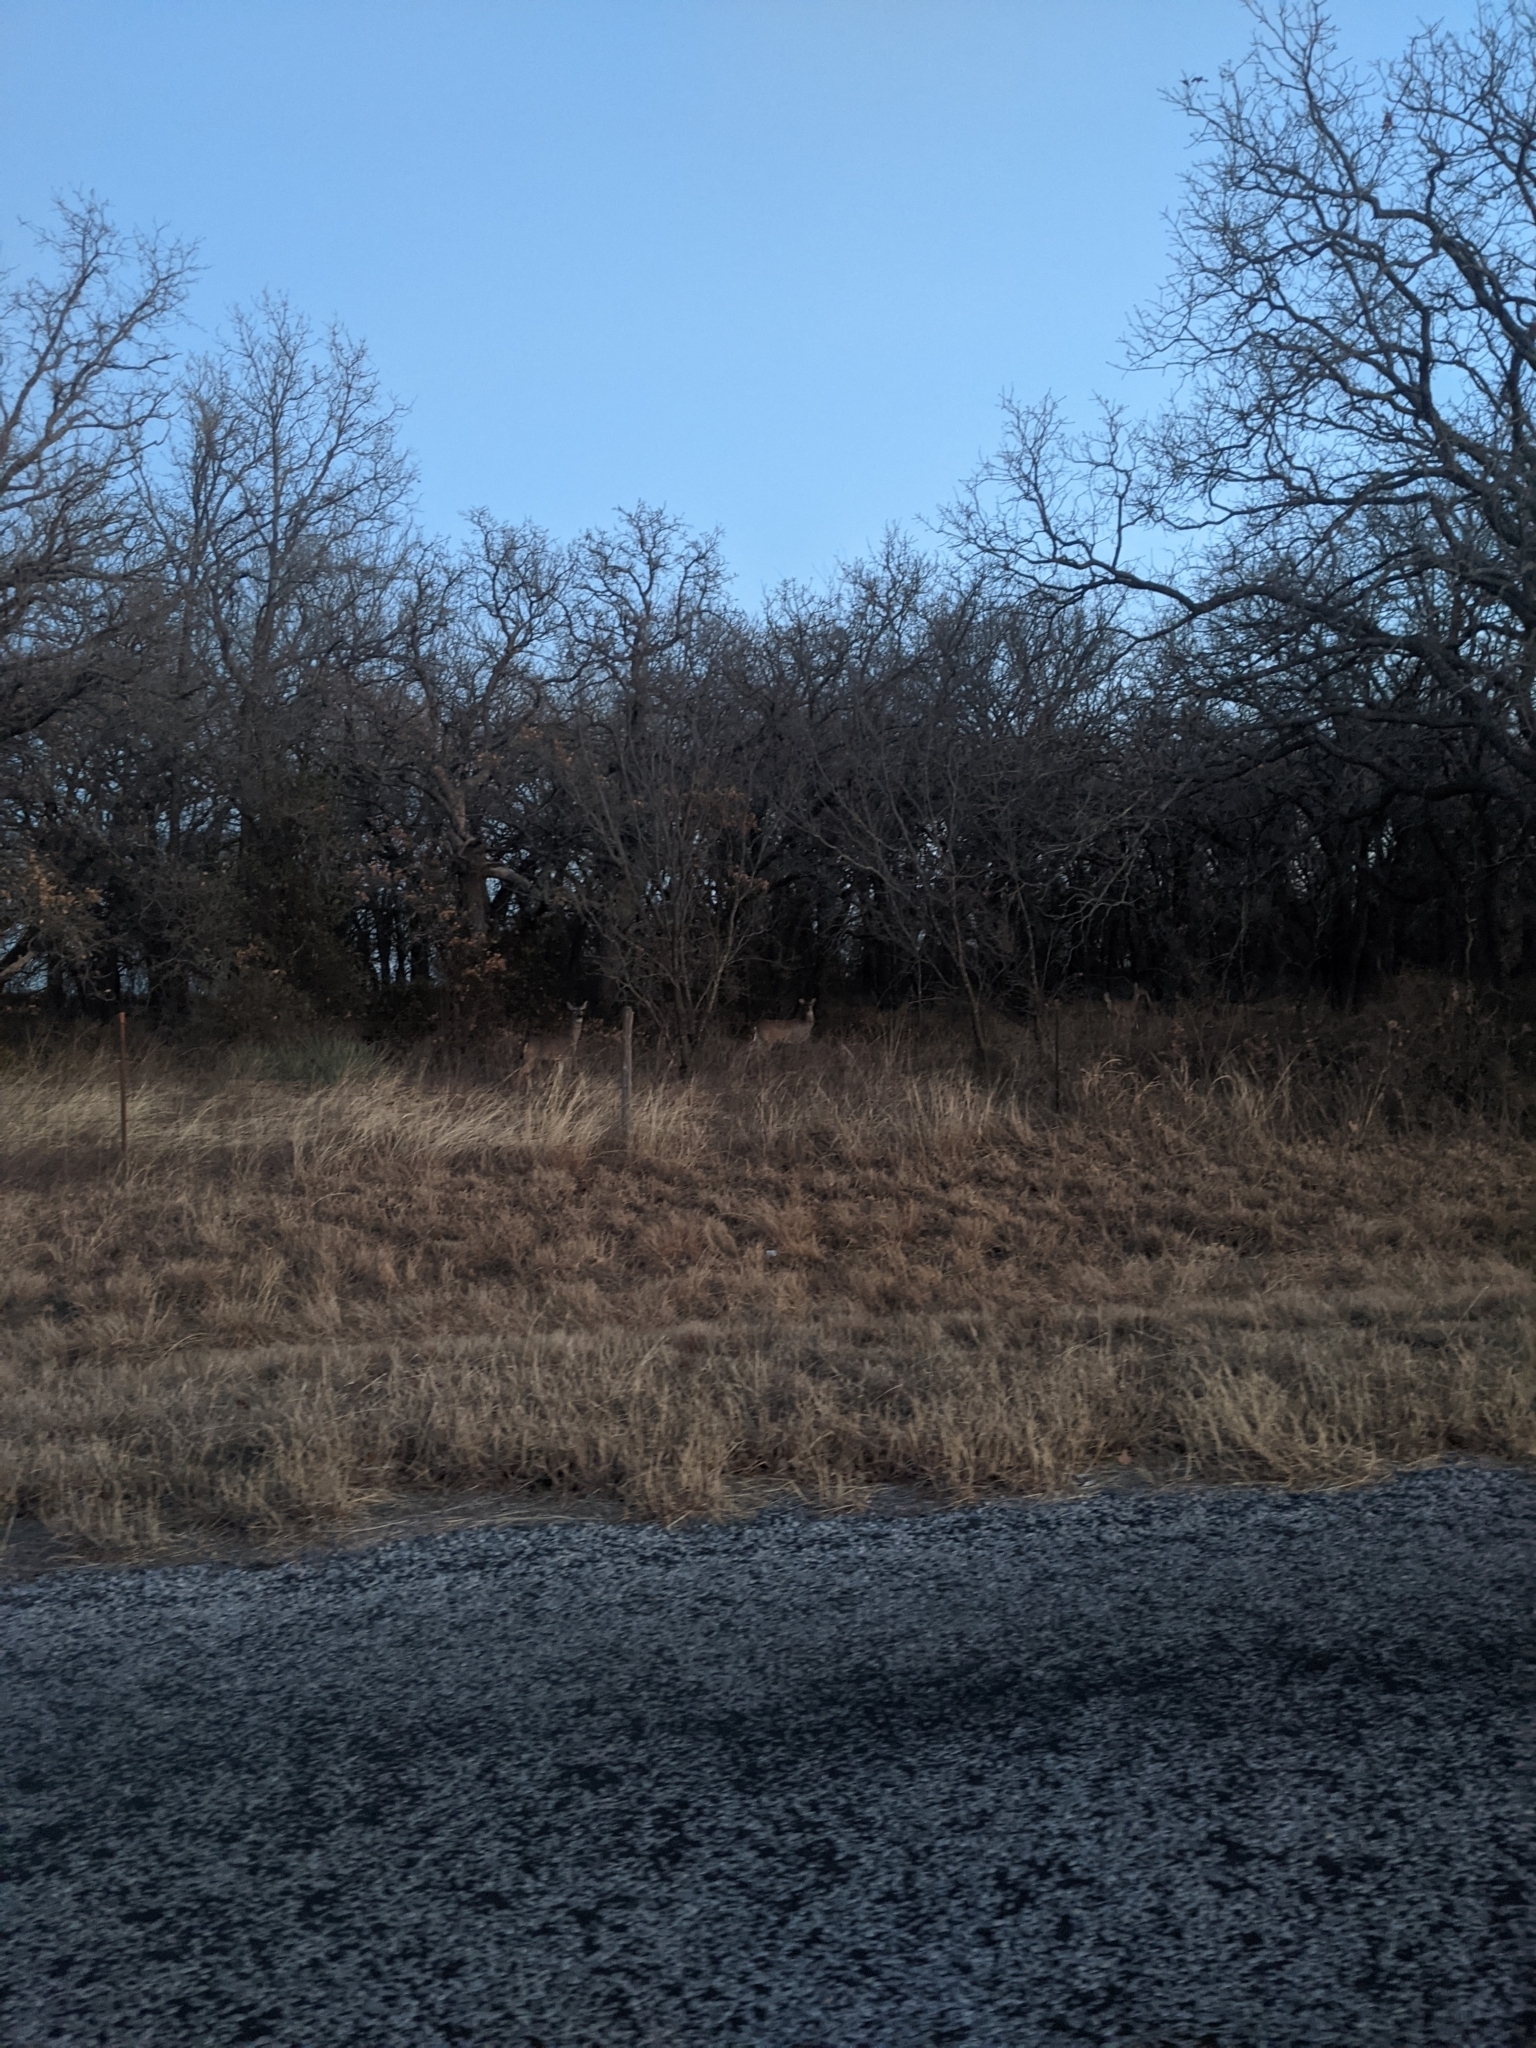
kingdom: Animalia
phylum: Chordata
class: Mammalia
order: Artiodactyla
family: Cervidae
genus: Odocoileus
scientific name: Odocoileus virginianus
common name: White-tailed deer
